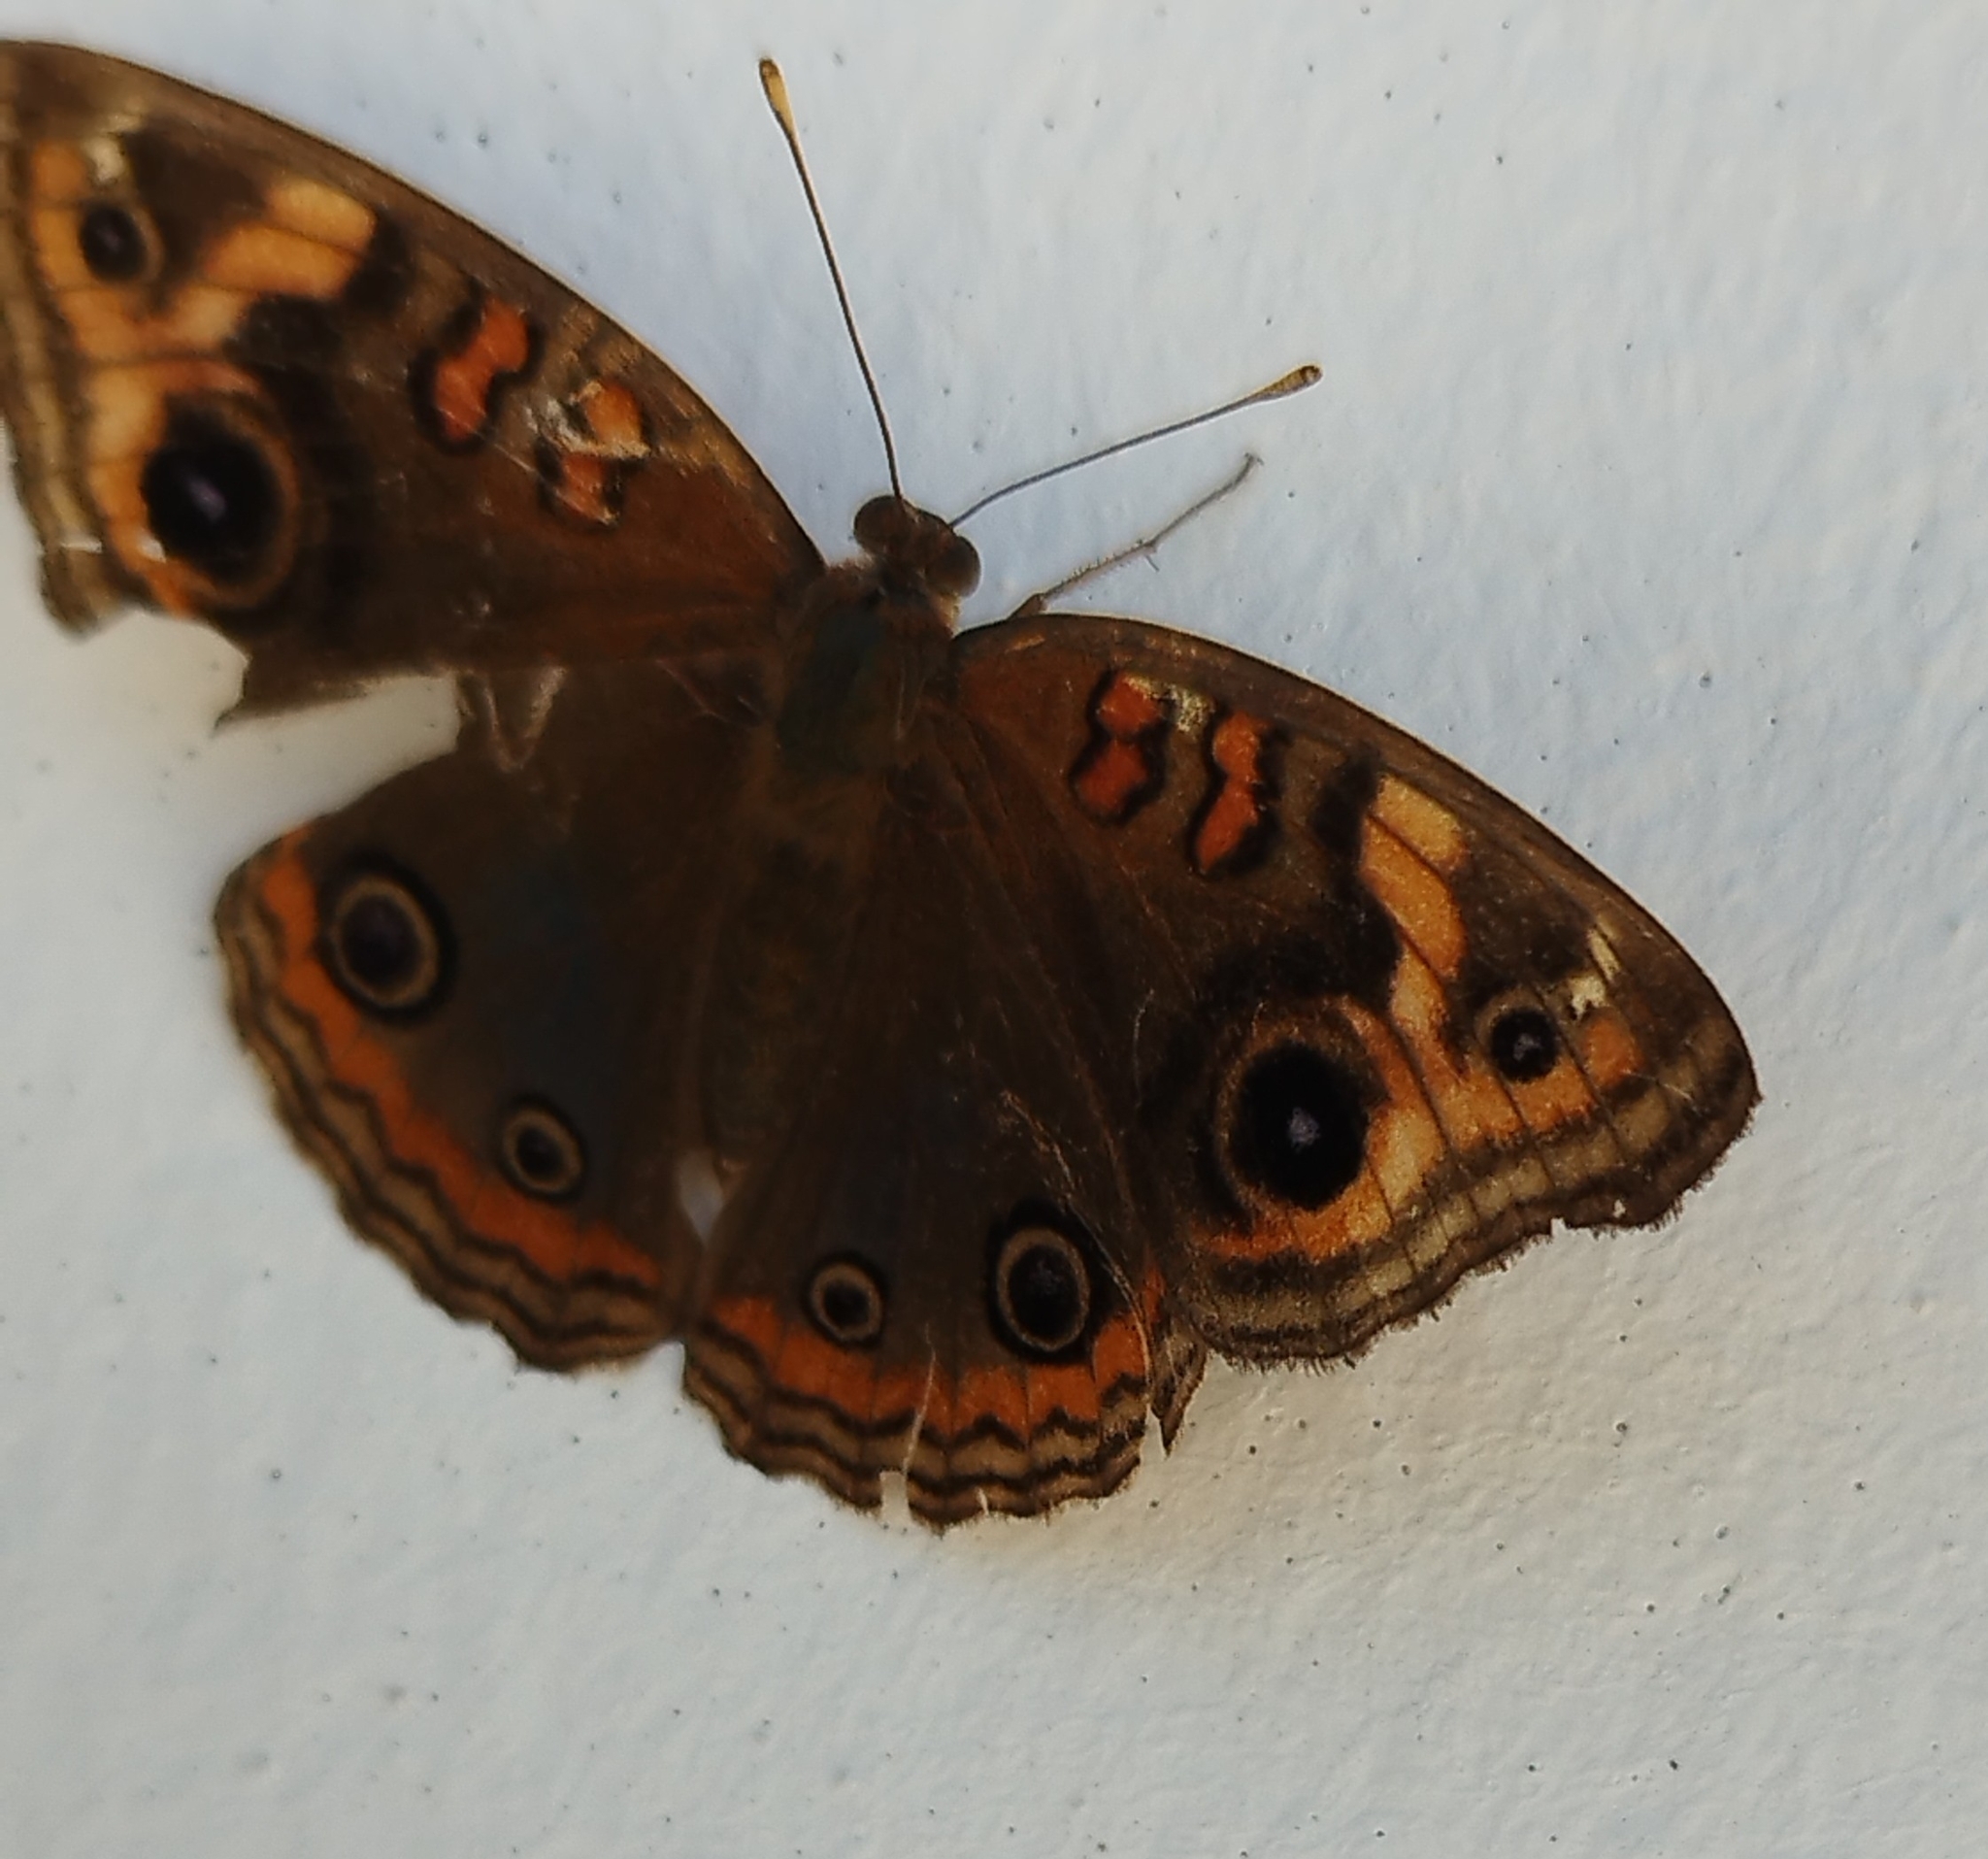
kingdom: Animalia
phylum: Arthropoda
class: Insecta
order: Lepidoptera
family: Nymphalidae
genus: Junonia
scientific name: Junonia lavinia
